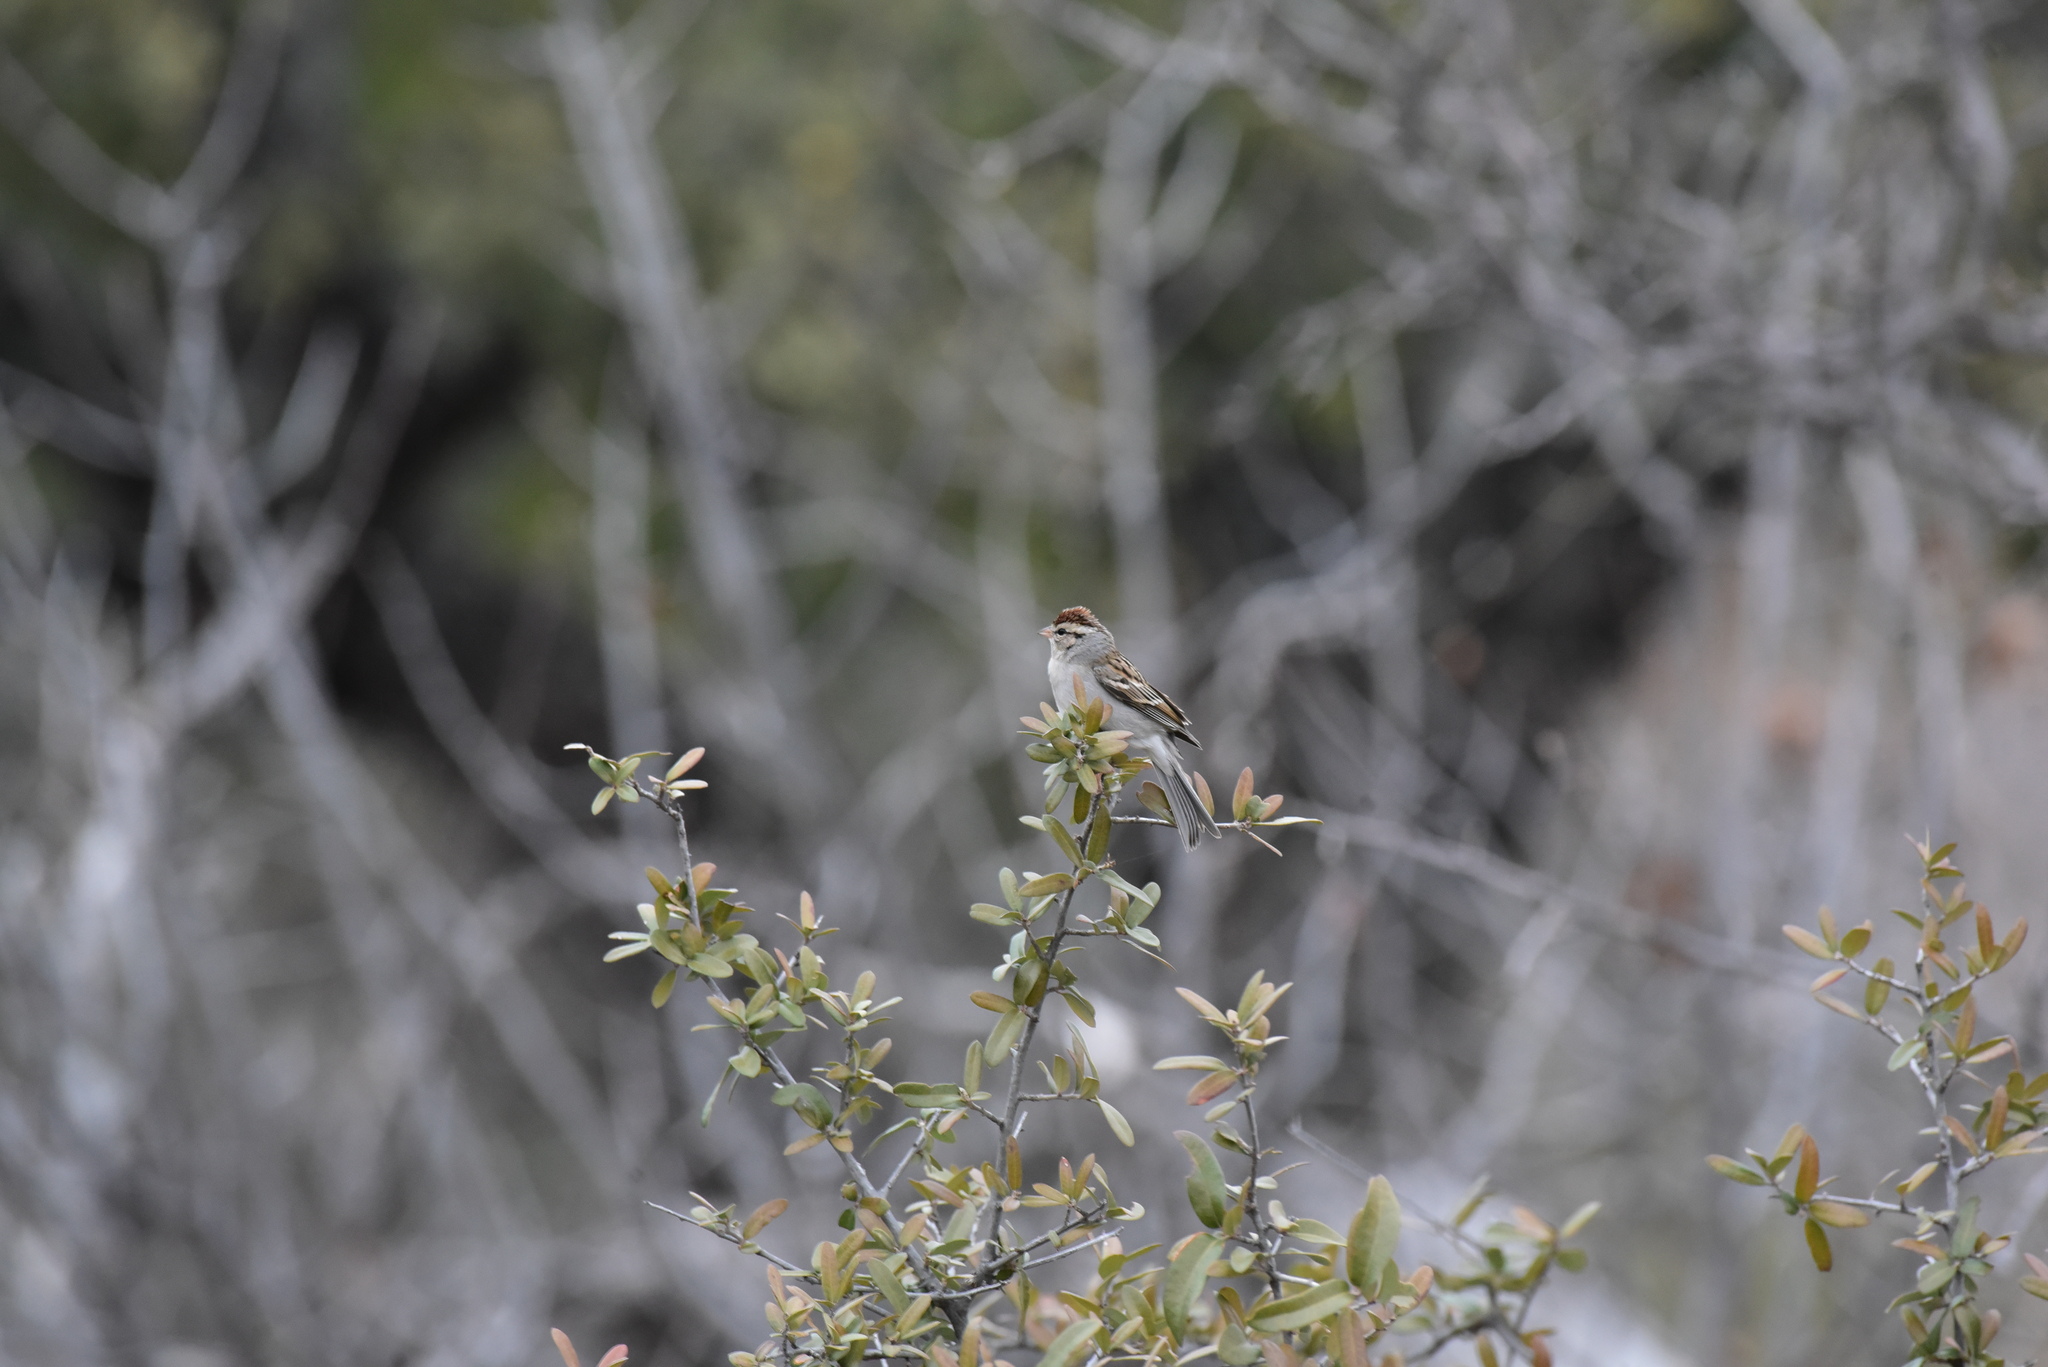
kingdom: Animalia
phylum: Chordata
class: Aves
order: Passeriformes
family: Passerellidae
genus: Spizella
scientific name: Spizella passerina
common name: Chipping sparrow
